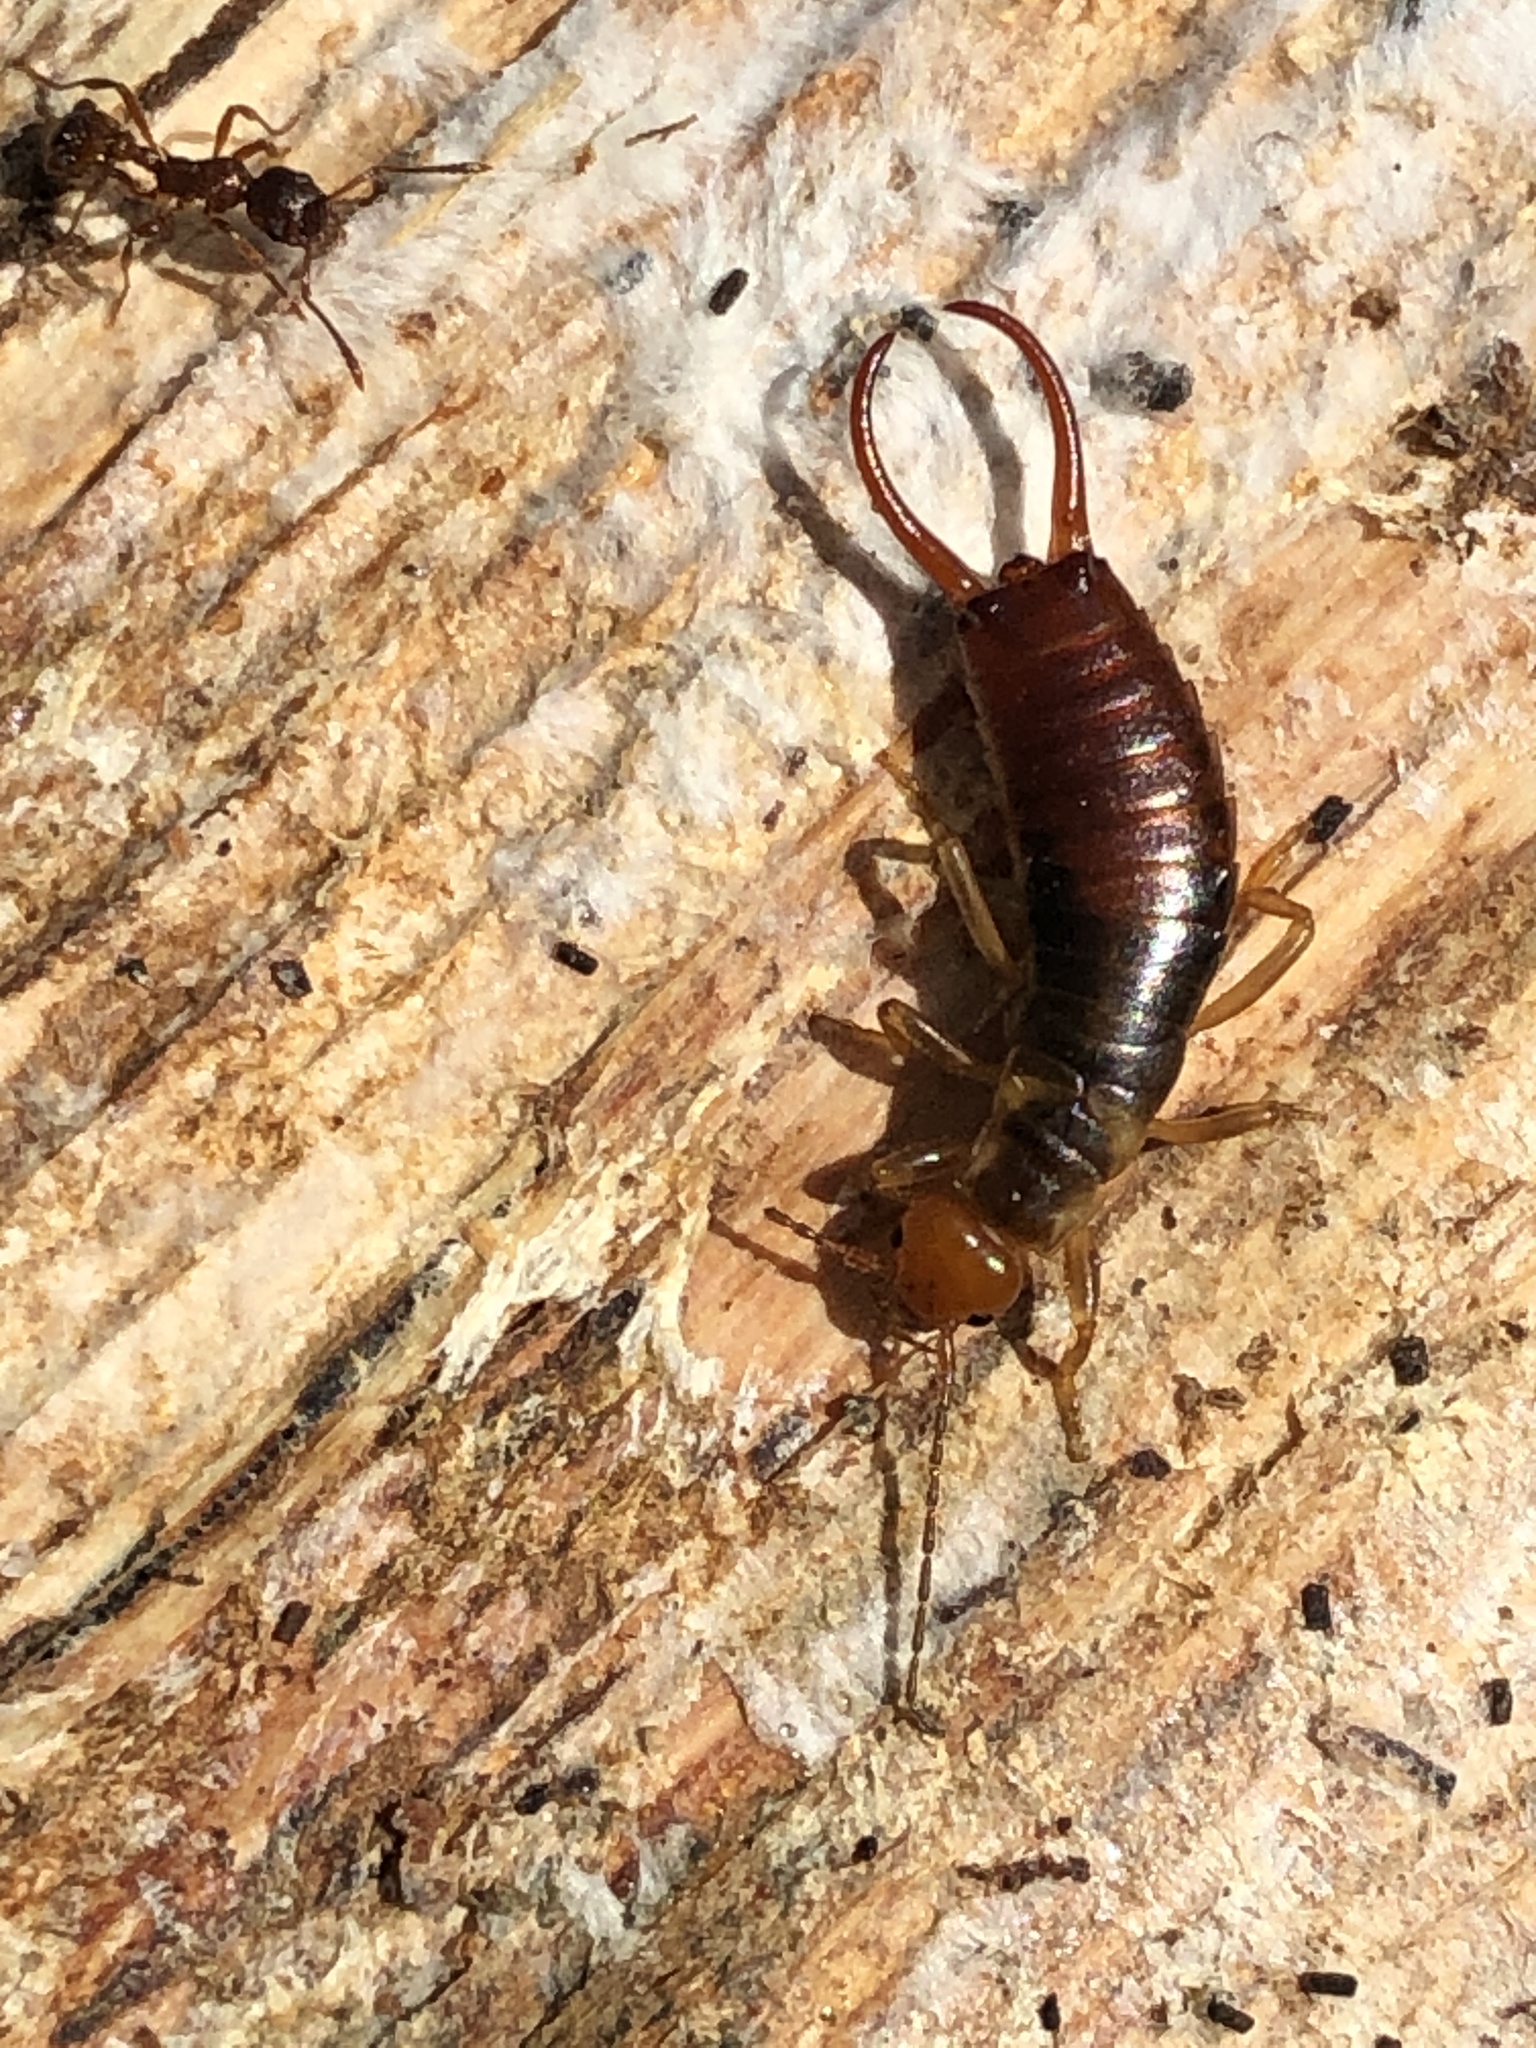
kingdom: Animalia
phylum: Arthropoda
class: Insecta
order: Dermaptera
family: Forficulidae
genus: Chelidurella
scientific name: Chelidurella acanthopygia
